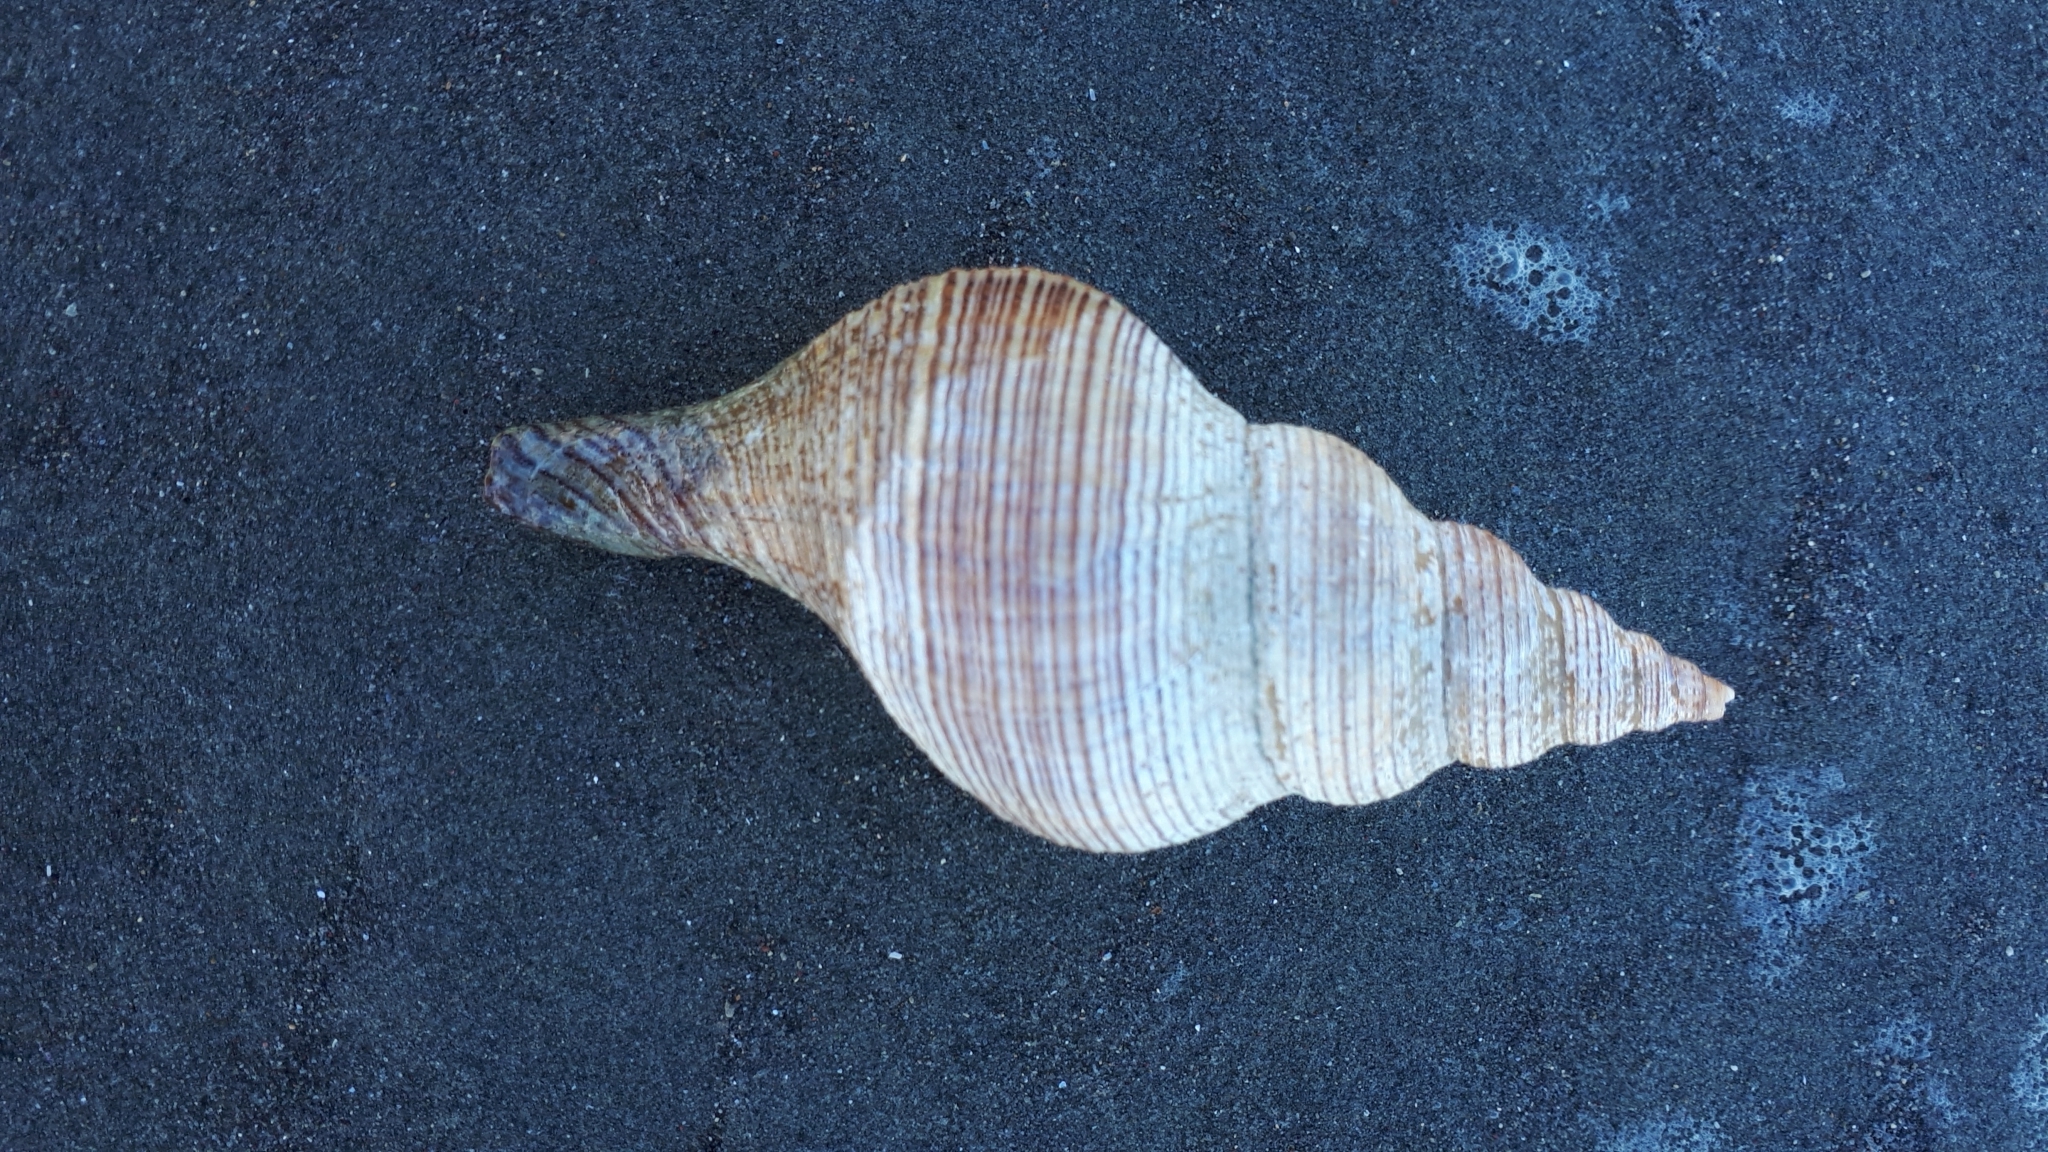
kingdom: Animalia
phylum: Mollusca
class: Gastropoda
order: Neogastropoda
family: Austrosiphonidae
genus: Penion
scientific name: Penion sulcatus
